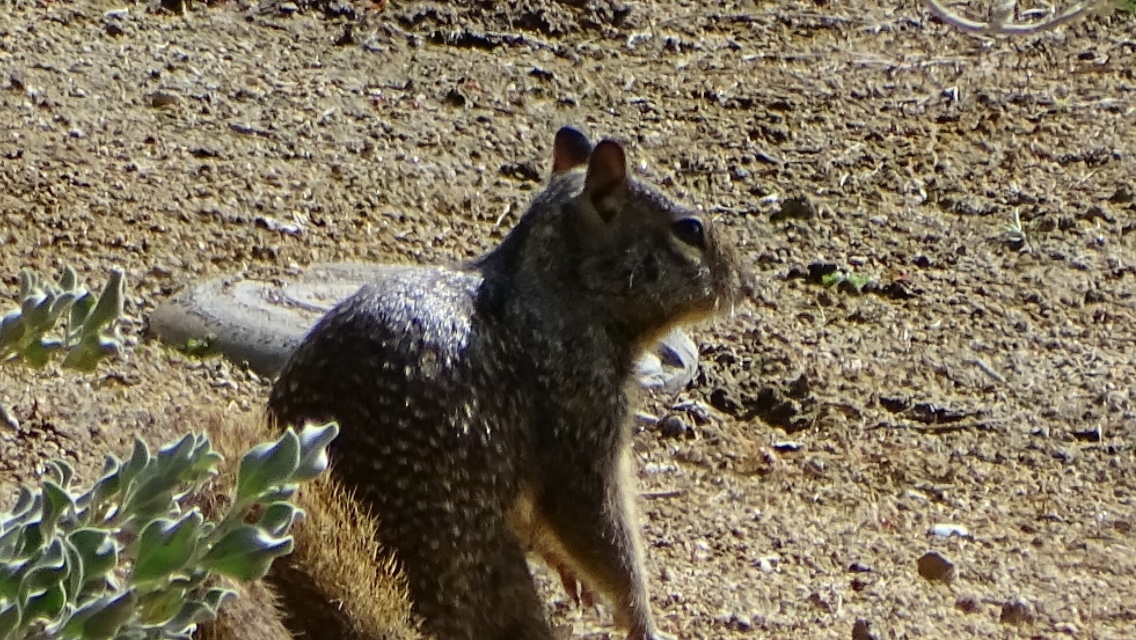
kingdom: Animalia
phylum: Chordata
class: Mammalia
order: Rodentia
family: Sciuridae
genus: Otospermophilus
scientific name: Otospermophilus beecheyi
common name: California ground squirrel
